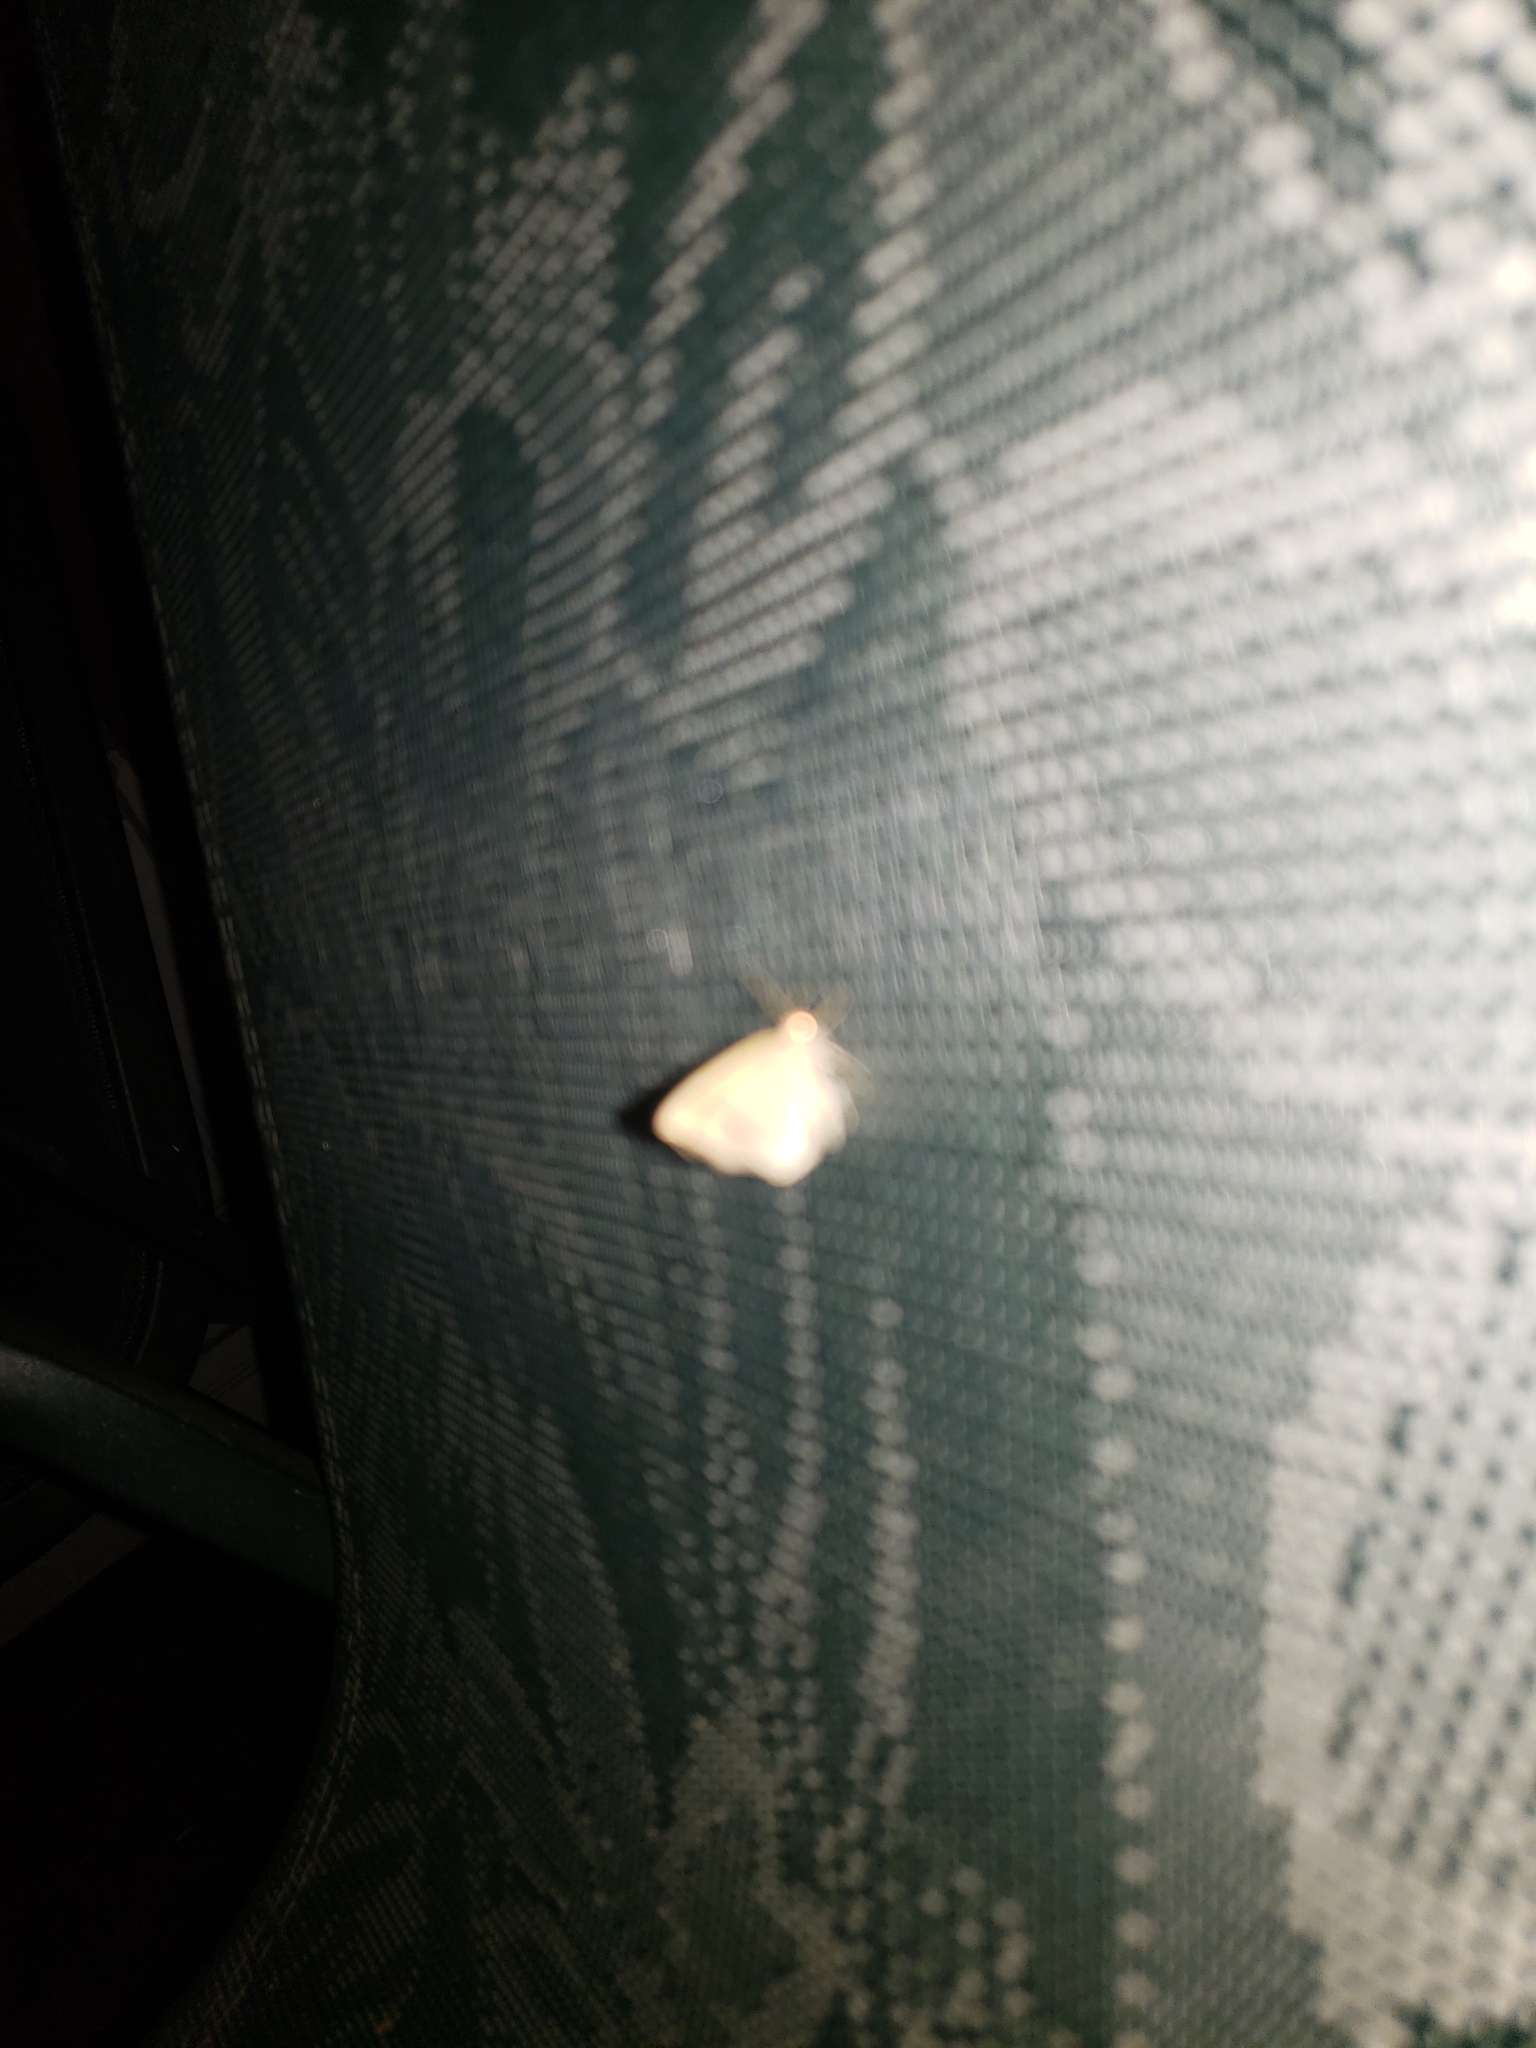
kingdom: Animalia
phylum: Arthropoda
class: Insecta
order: Lepidoptera
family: Geometridae
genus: Nematocampa
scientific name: Nematocampa resistaria
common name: Horned spanworm moth
